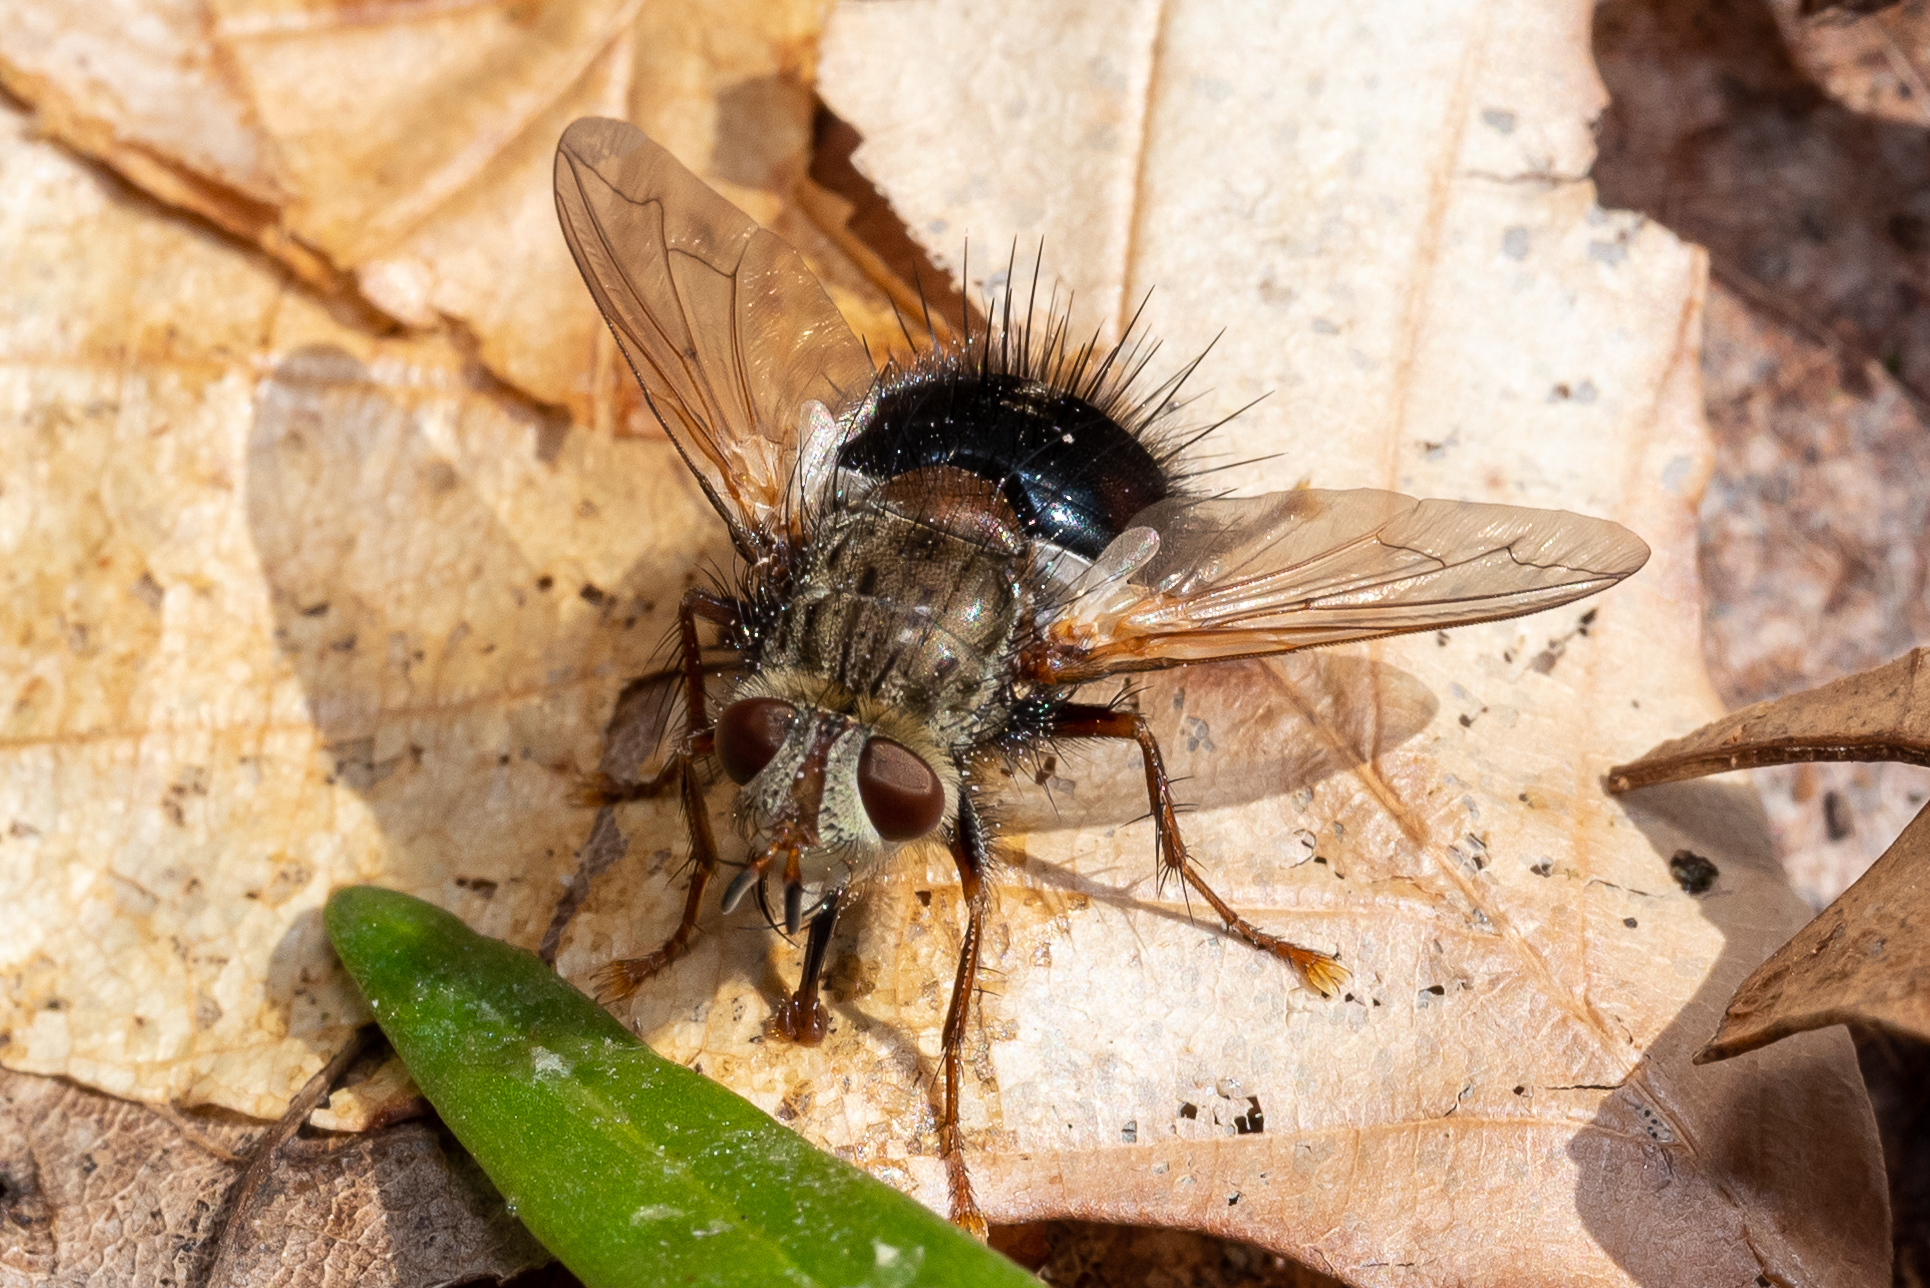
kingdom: Animalia
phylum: Arthropoda
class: Insecta
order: Diptera
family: Tachinidae
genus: Epalpus
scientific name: Epalpus signifer
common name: Early tachinid fly
